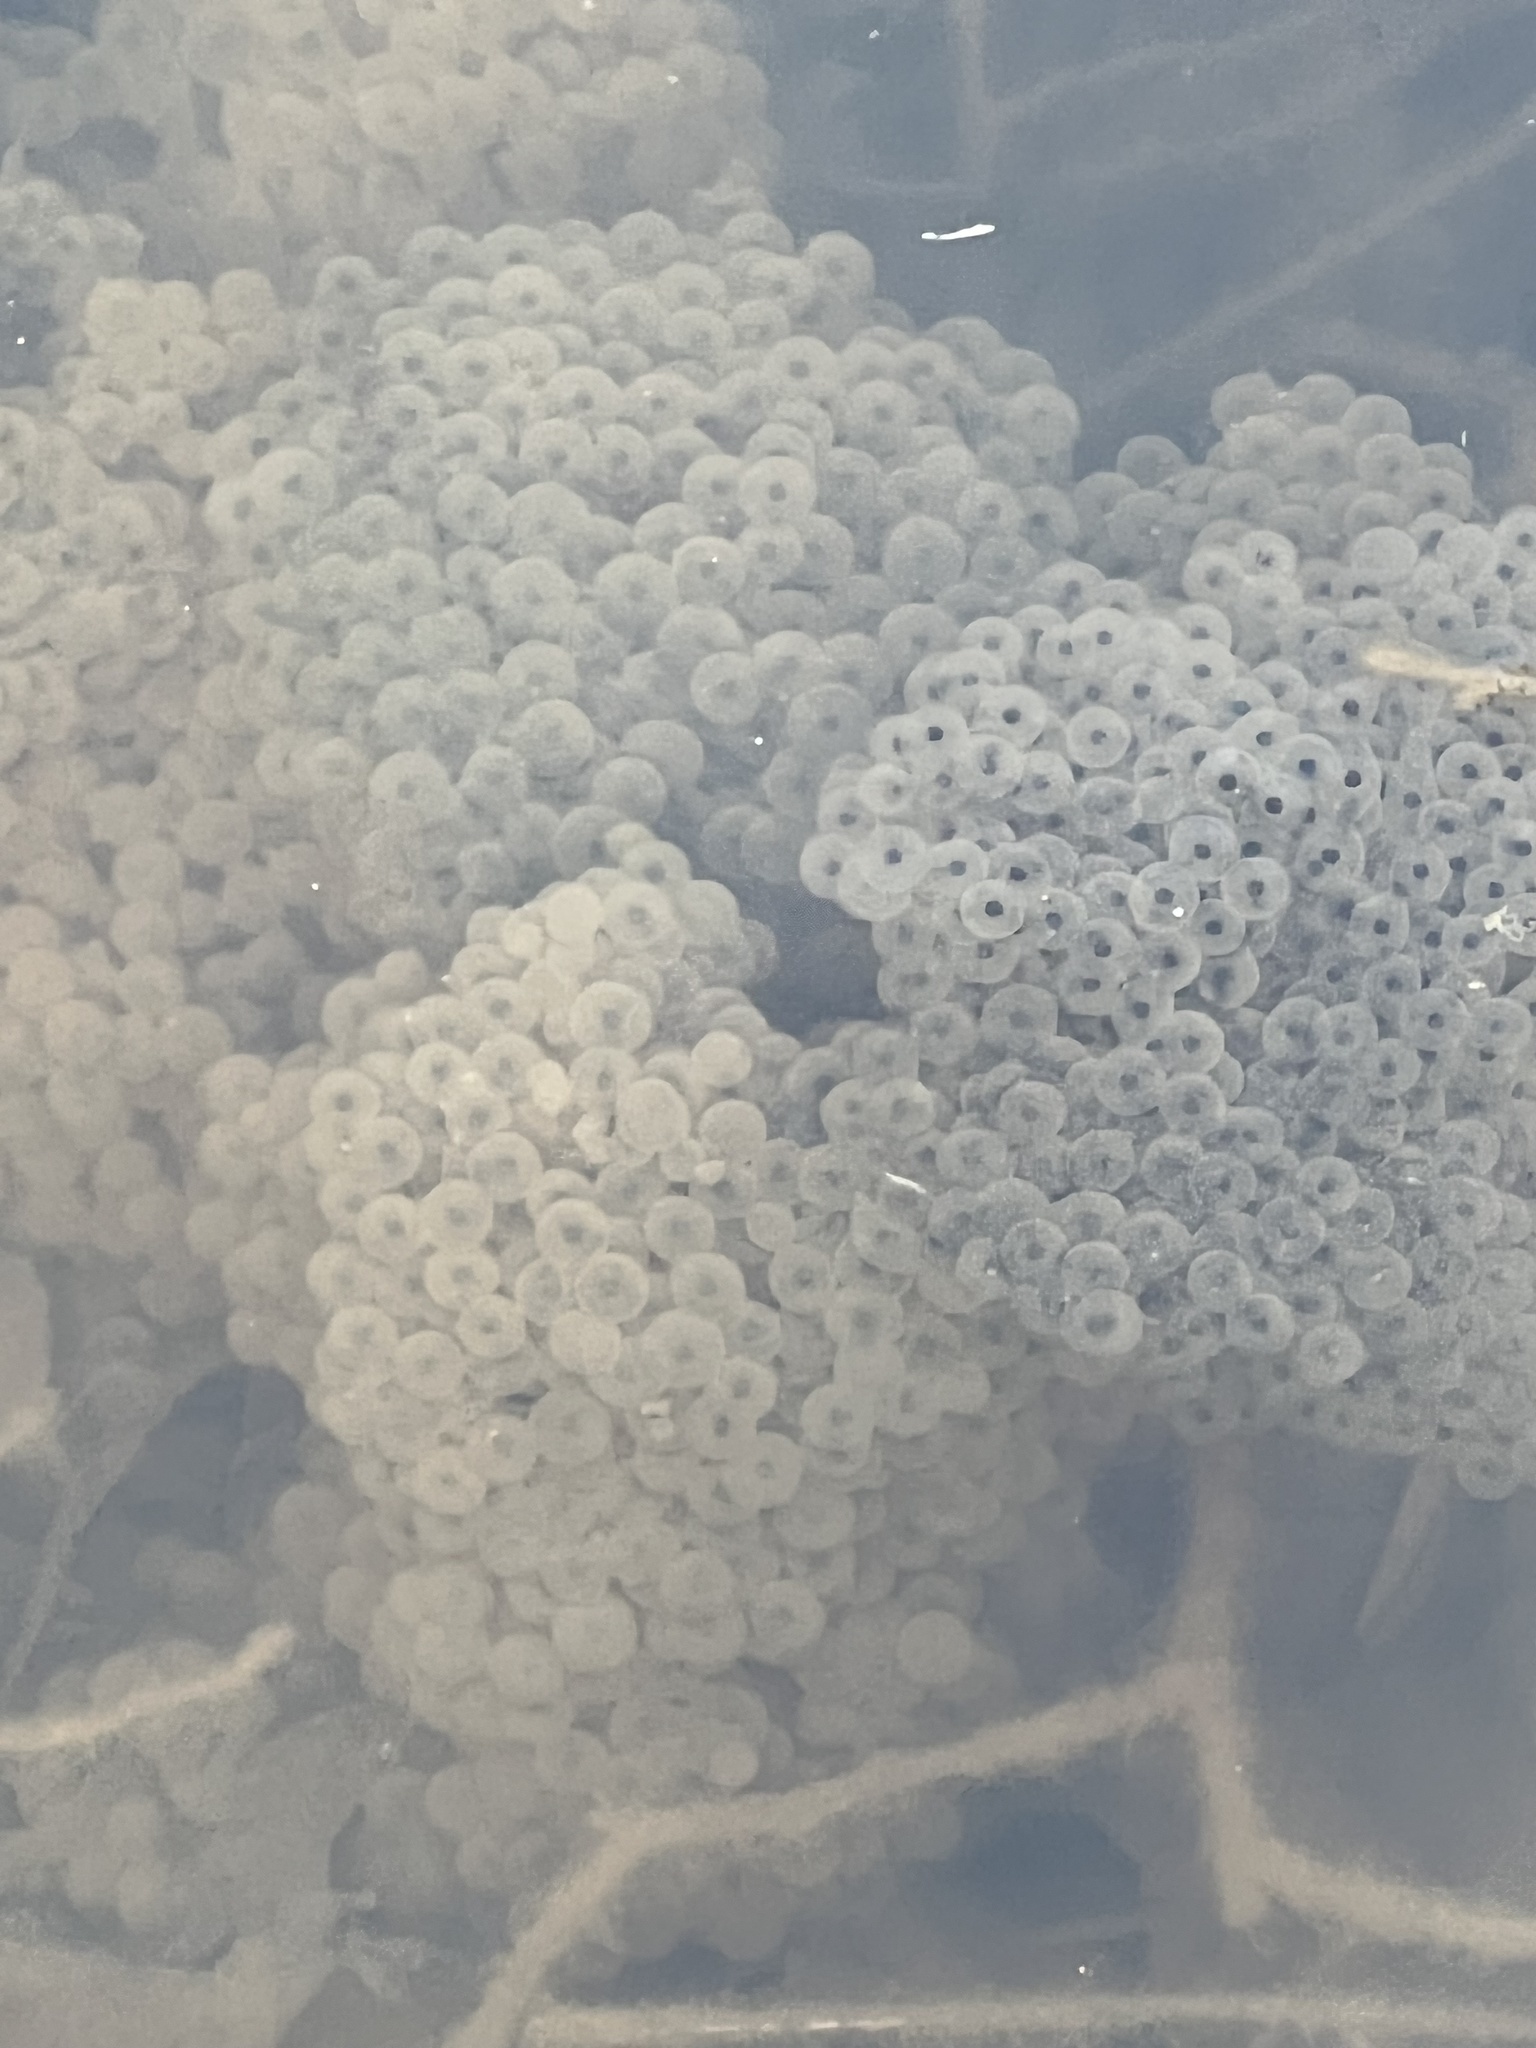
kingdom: Animalia
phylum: Chordata
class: Amphibia
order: Anura
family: Ranidae
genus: Rana
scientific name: Rana temporaria
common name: Common frog
